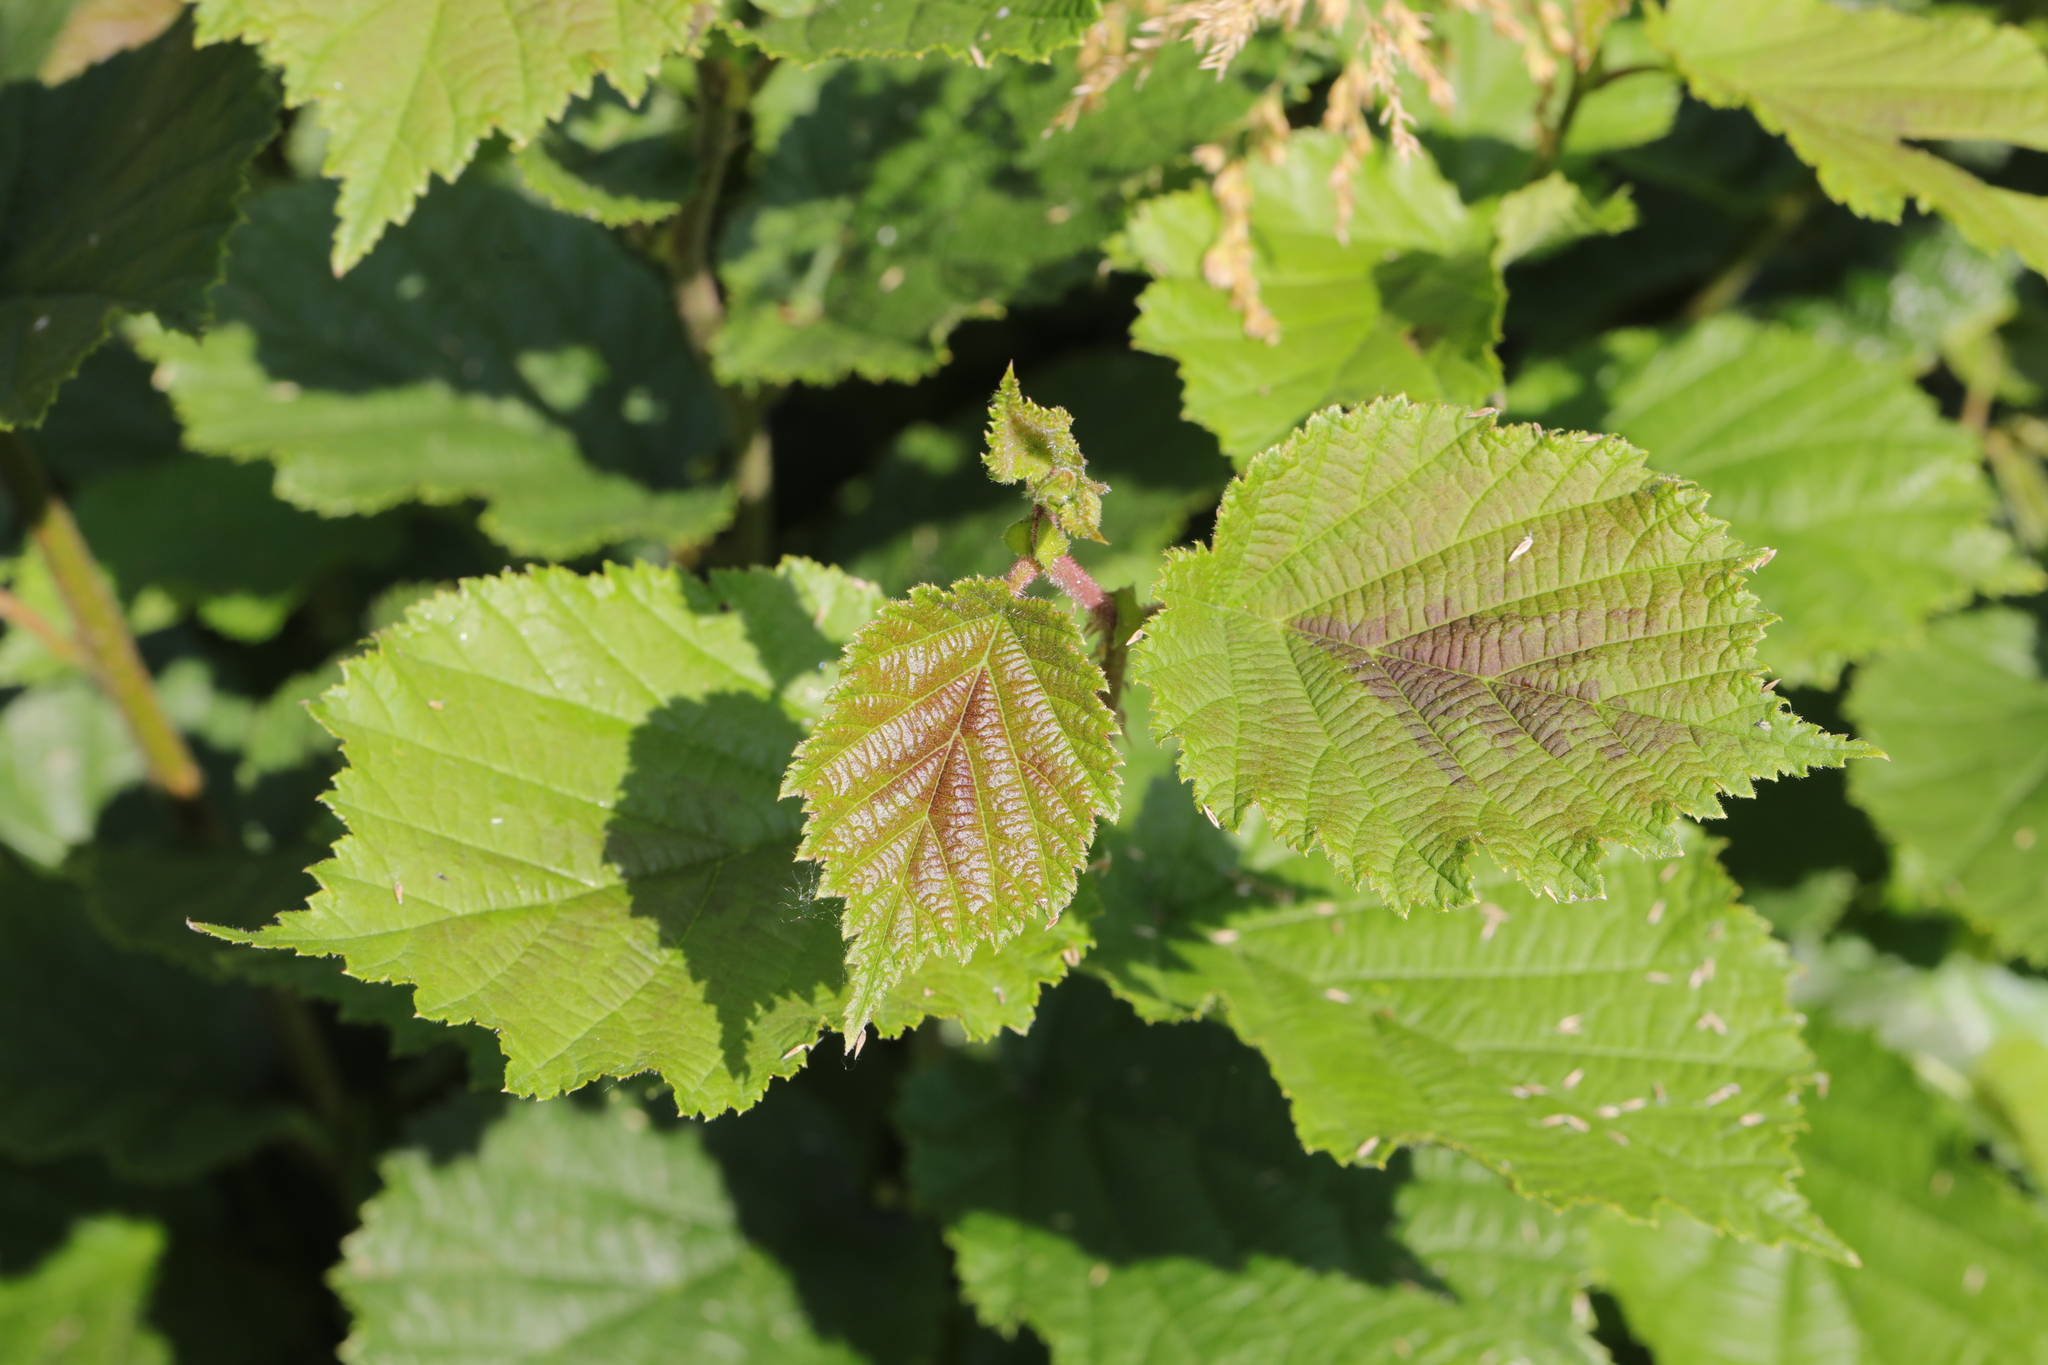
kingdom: Plantae
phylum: Tracheophyta
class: Magnoliopsida
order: Fagales
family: Betulaceae
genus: Corylus
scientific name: Corylus avellana
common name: European hazel
